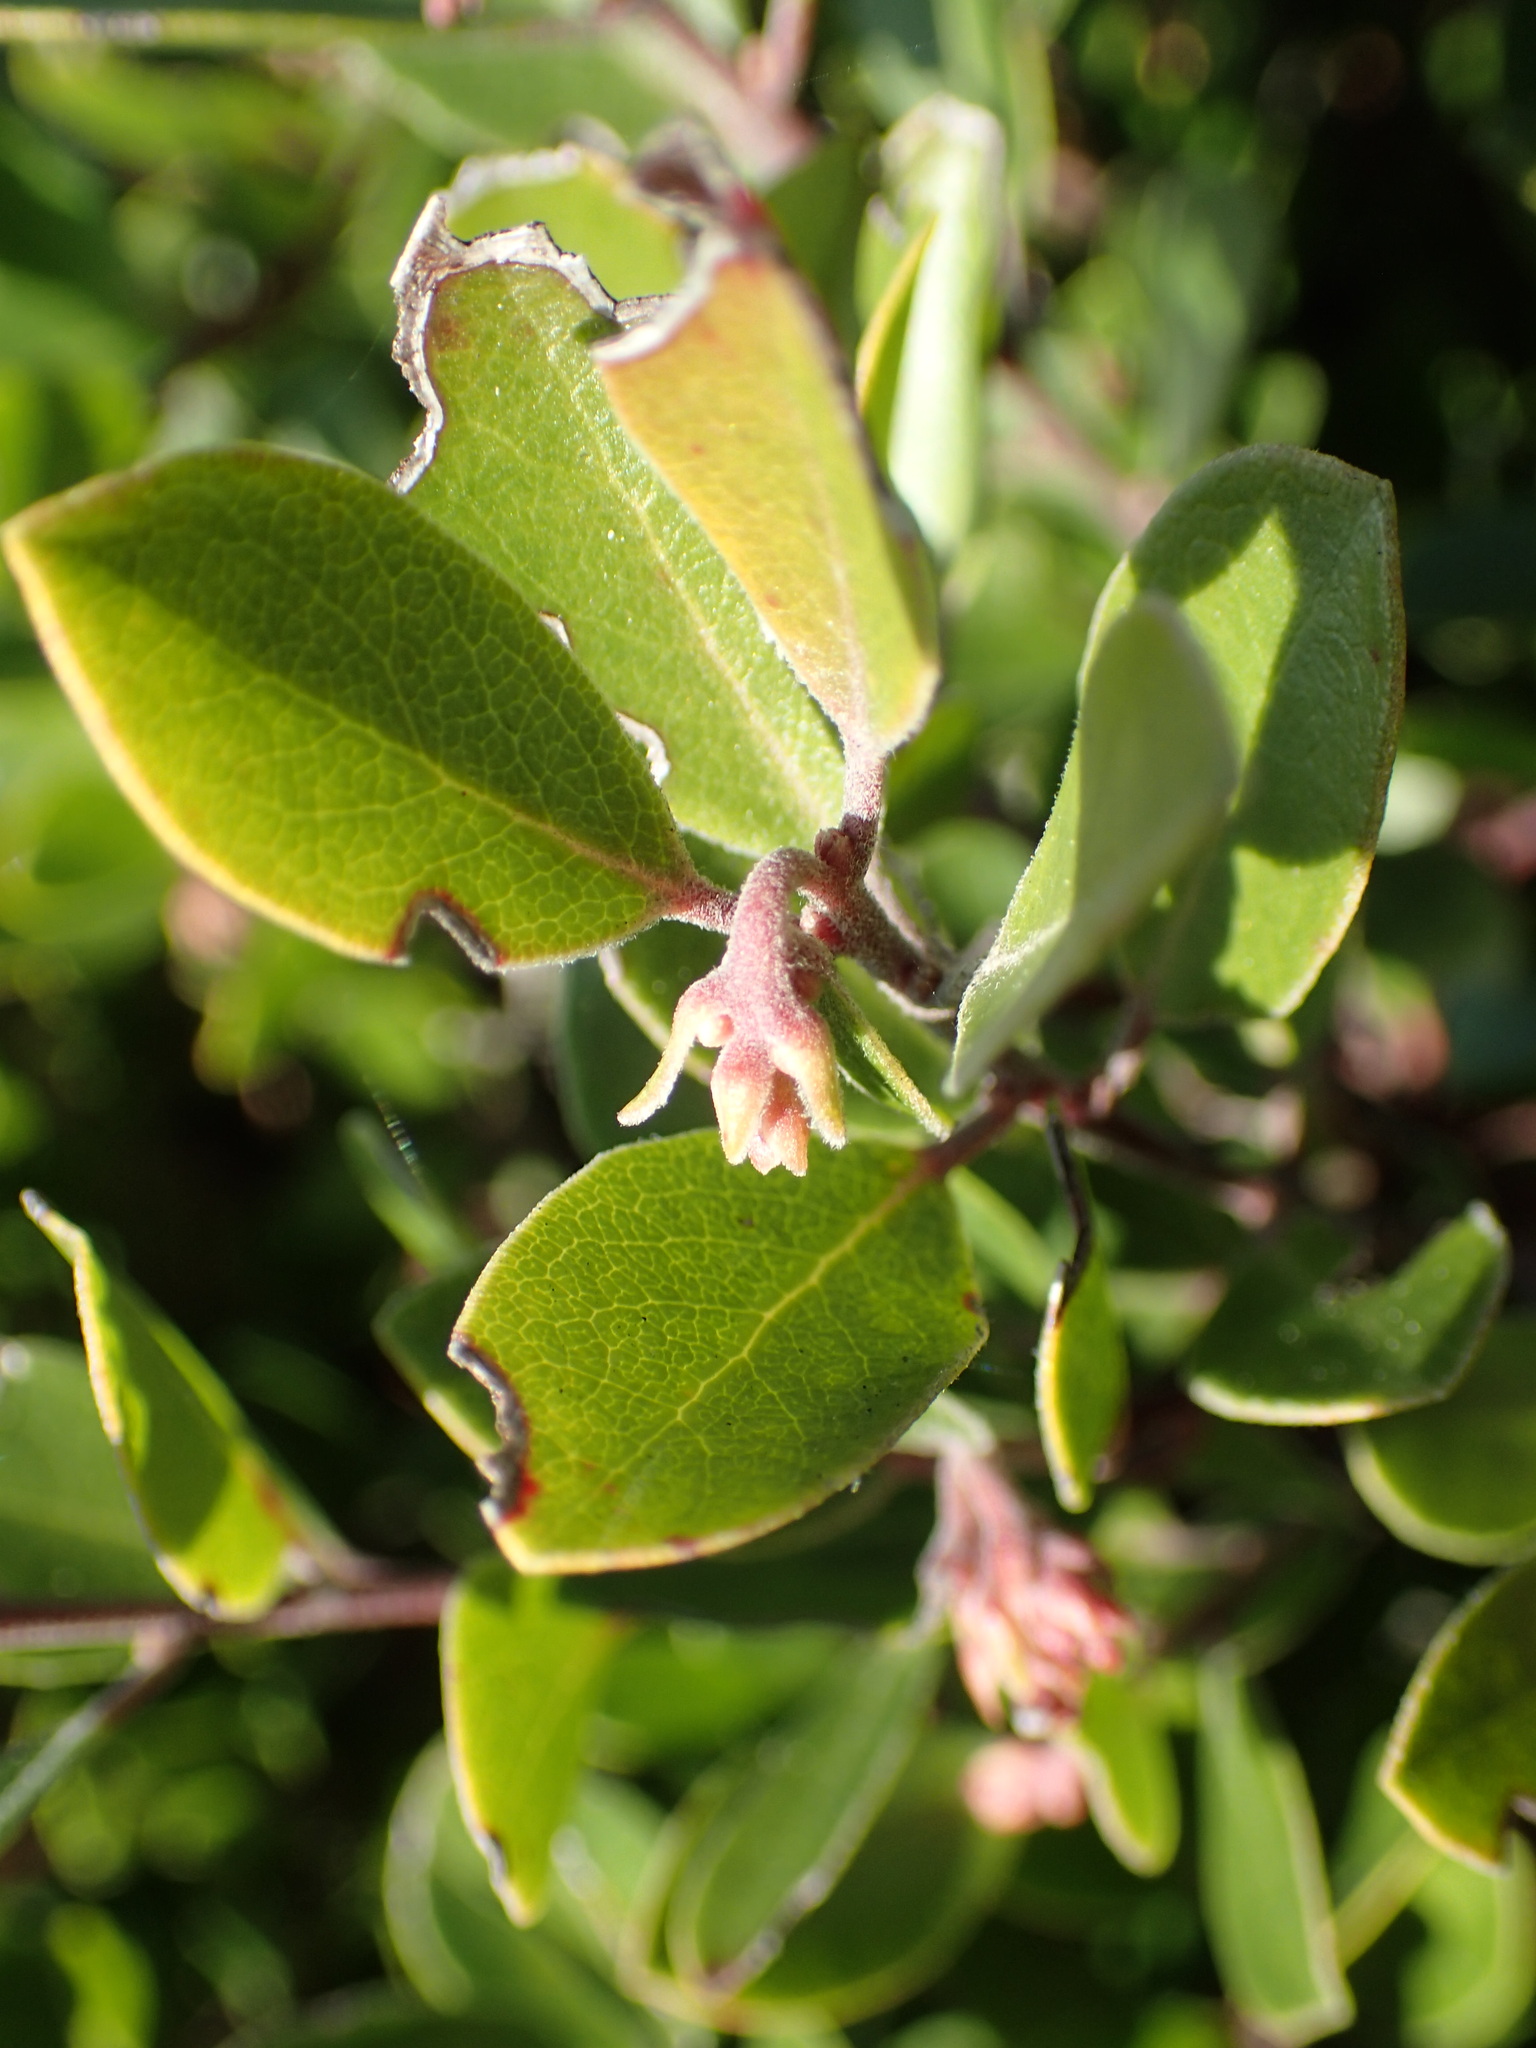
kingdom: Plantae
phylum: Tracheophyta
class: Magnoliopsida
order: Ericales
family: Ericaceae
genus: Arctostaphylos
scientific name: Arctostaphylos franciscana
